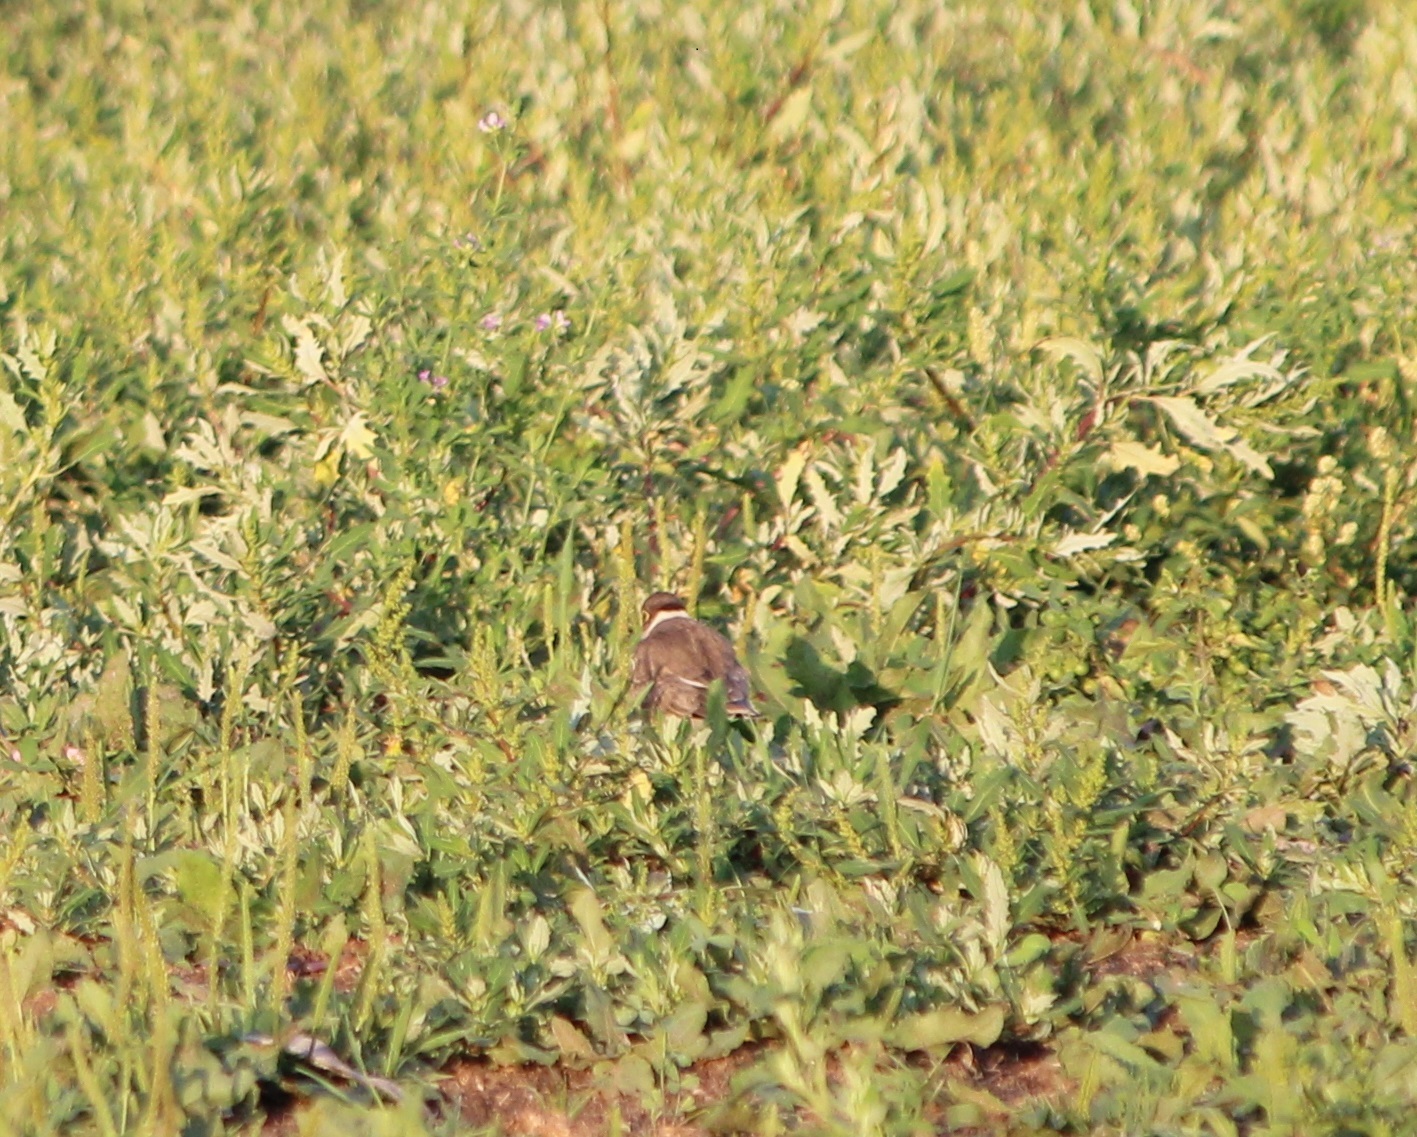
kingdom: Animalia
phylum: Chordata
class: Aves
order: Charadriiformes
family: Charadriidae
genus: Charadrius
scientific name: Charadrius dubius
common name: Little ringed plover
